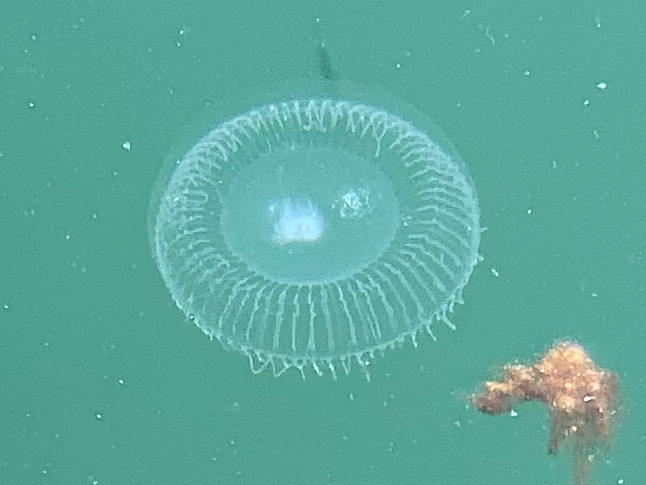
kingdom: Animalia
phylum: Cnidaria
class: Hydrozoa
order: Leptothecata
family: Aequoreidae
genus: Aequorea
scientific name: Aequorea victoria
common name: Water jellyfish
